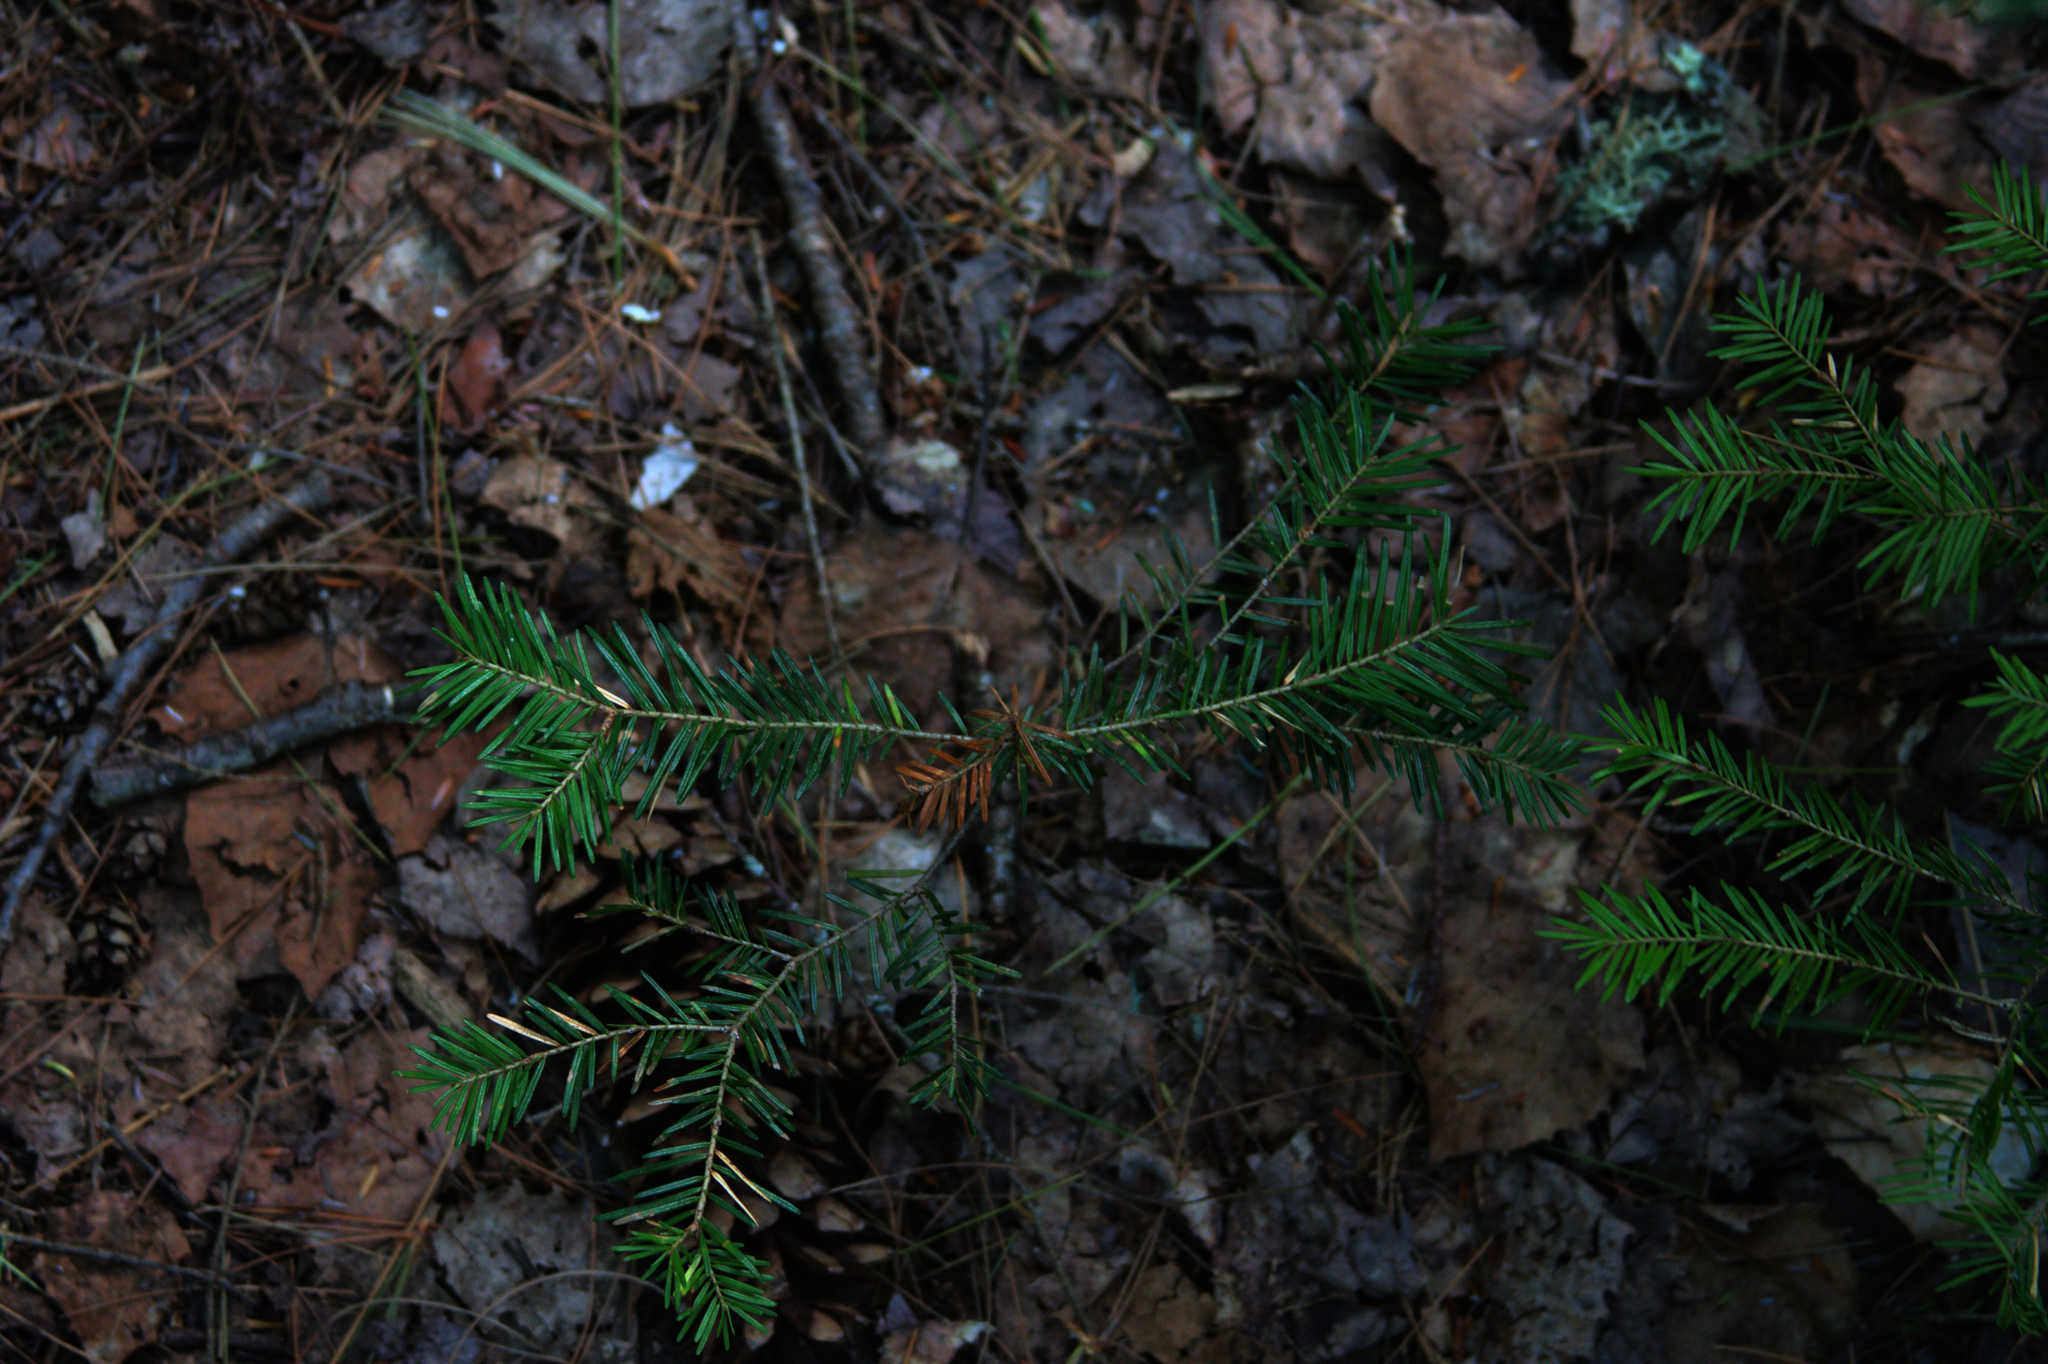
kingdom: Plantae
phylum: Tracheophyta
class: Pinopsida
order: Pinales
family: Pinaceae
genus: Tsuga
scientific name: Tsuga canadensis
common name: Eastern hemlock
